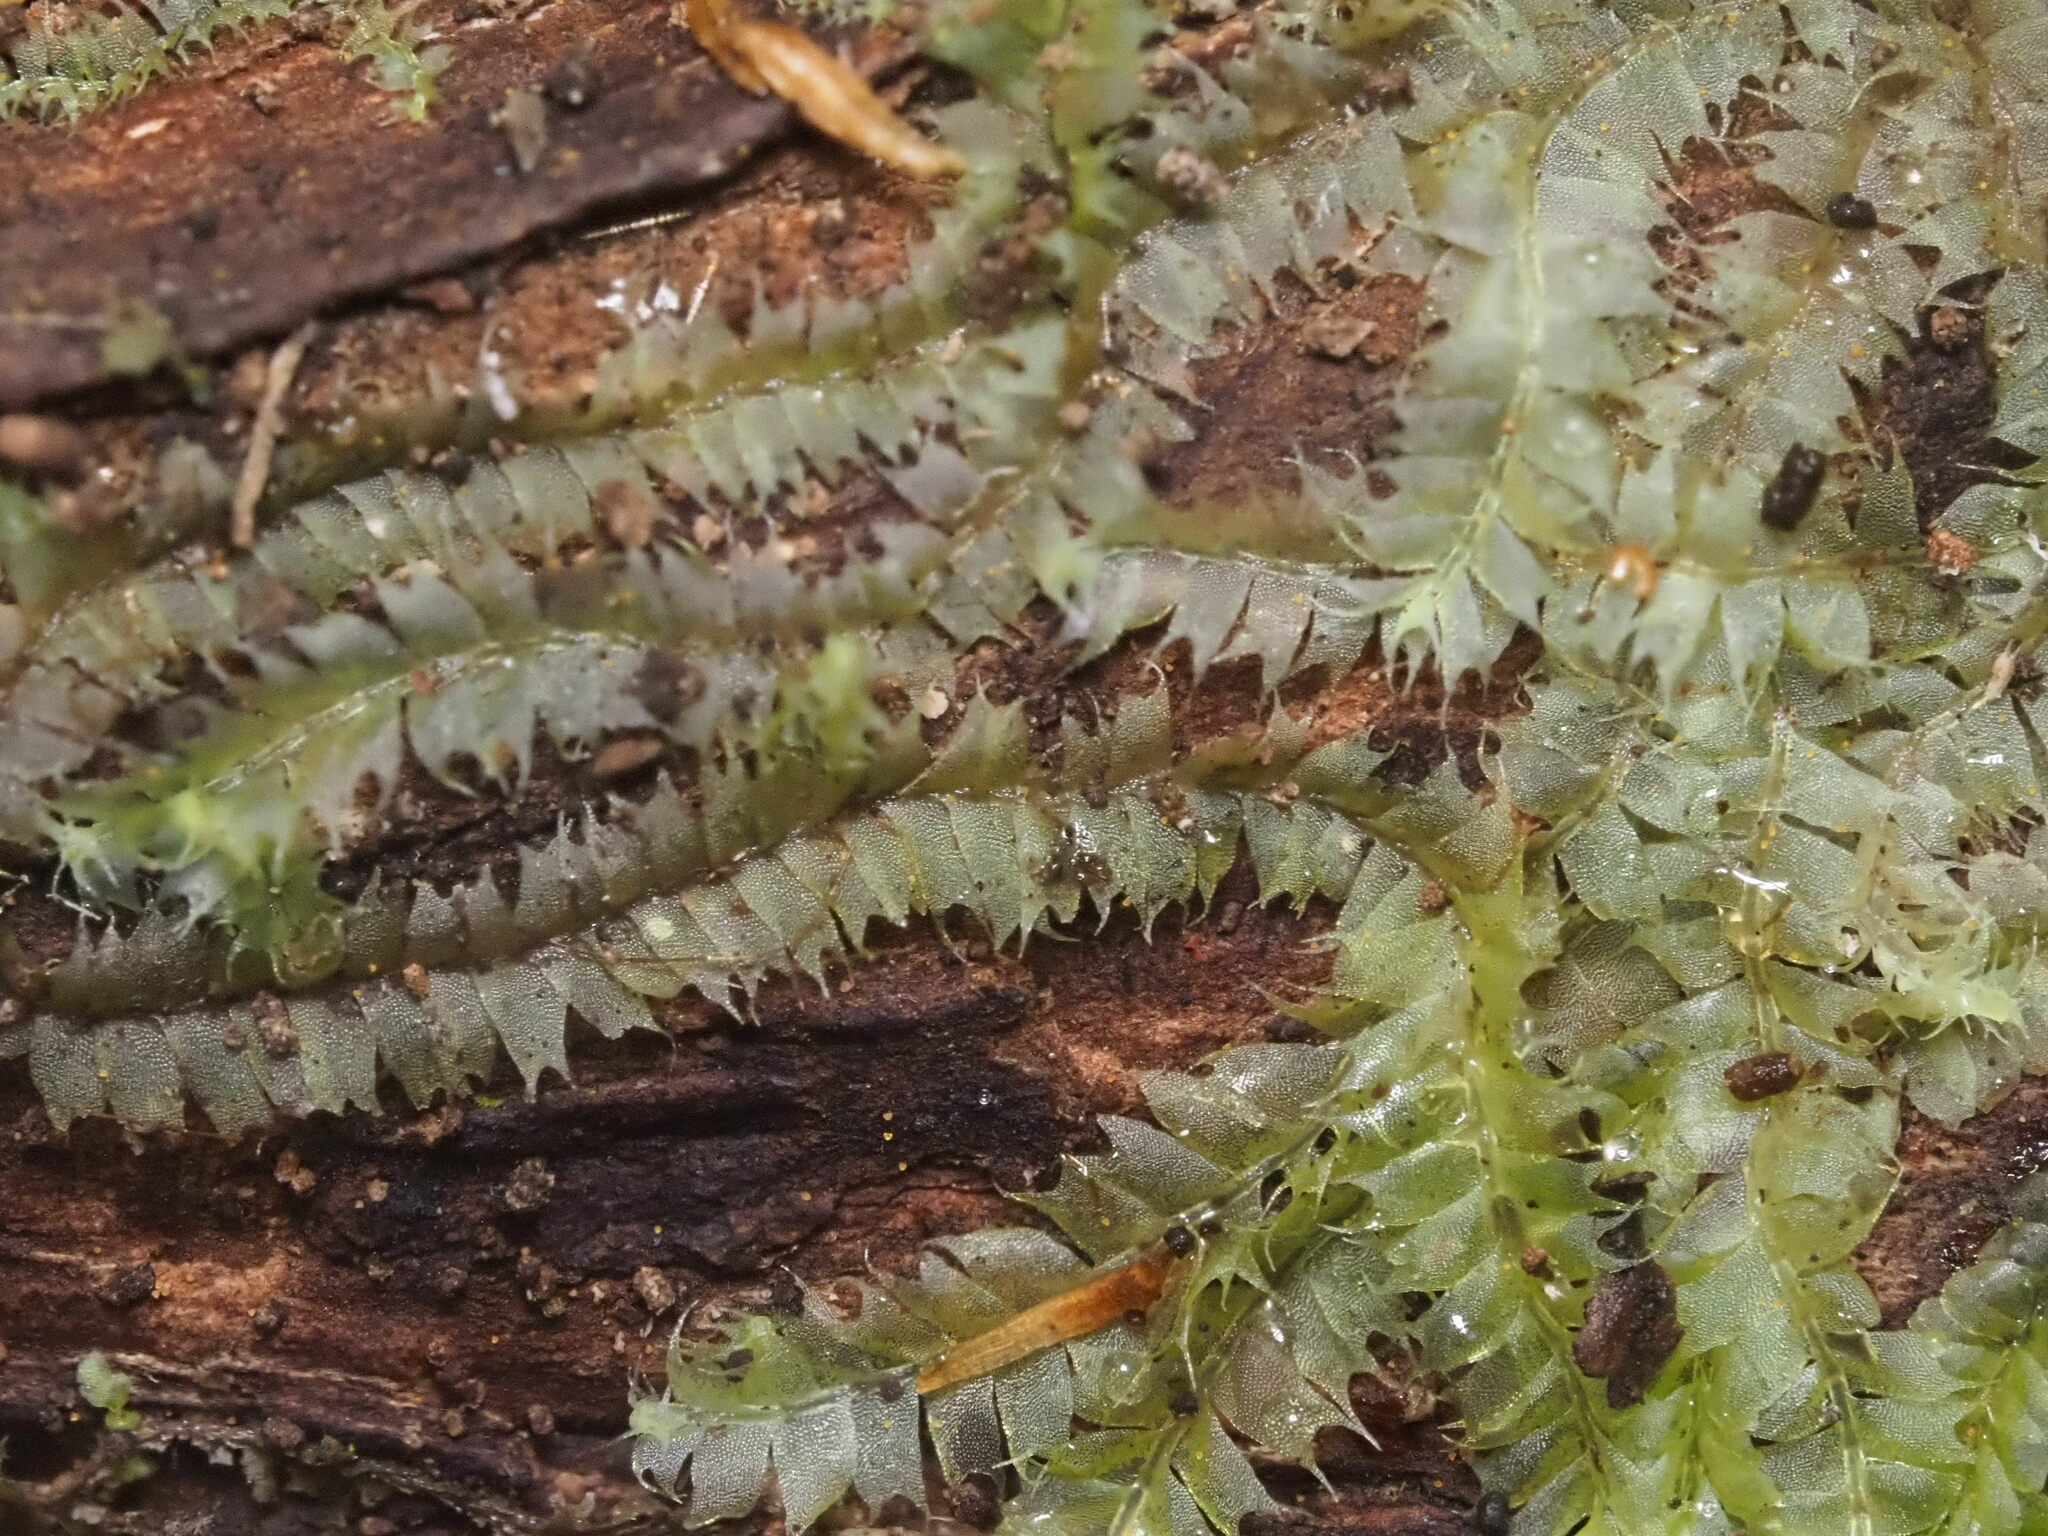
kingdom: Plantae
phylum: Marchantiophyta
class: Jungermanniopsida
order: Jungermanniales
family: Lophocoleaceae
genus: Lophocolea
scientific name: Lophocolea hawaica
